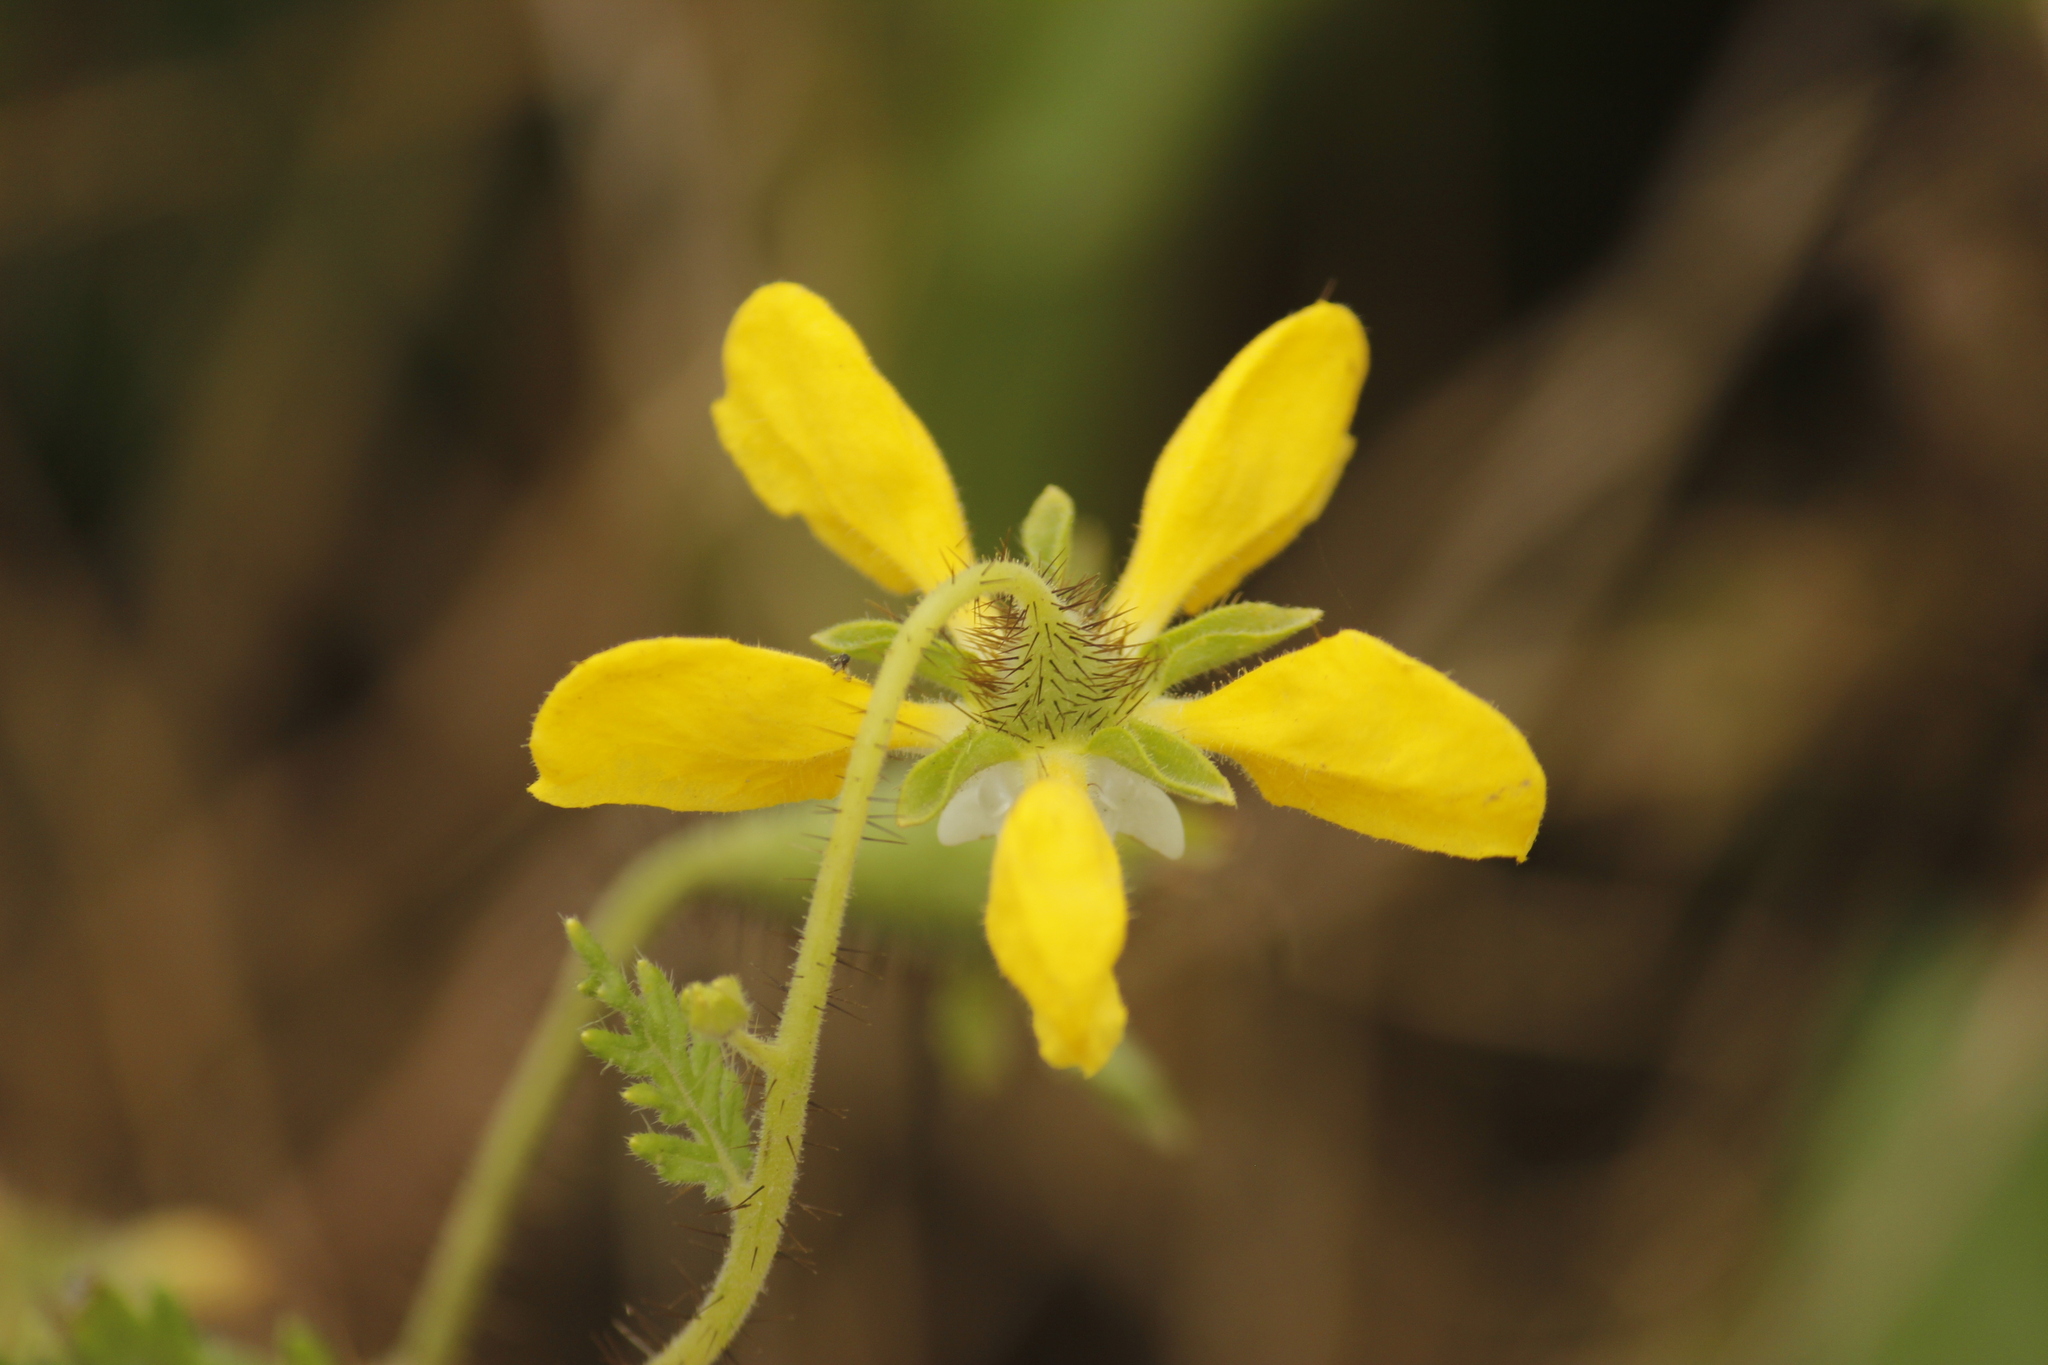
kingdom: Plantae
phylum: Tracheophyta
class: Magnoliopsida
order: Cornales
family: Loasaceae
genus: Nasa
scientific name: Nasa urens
